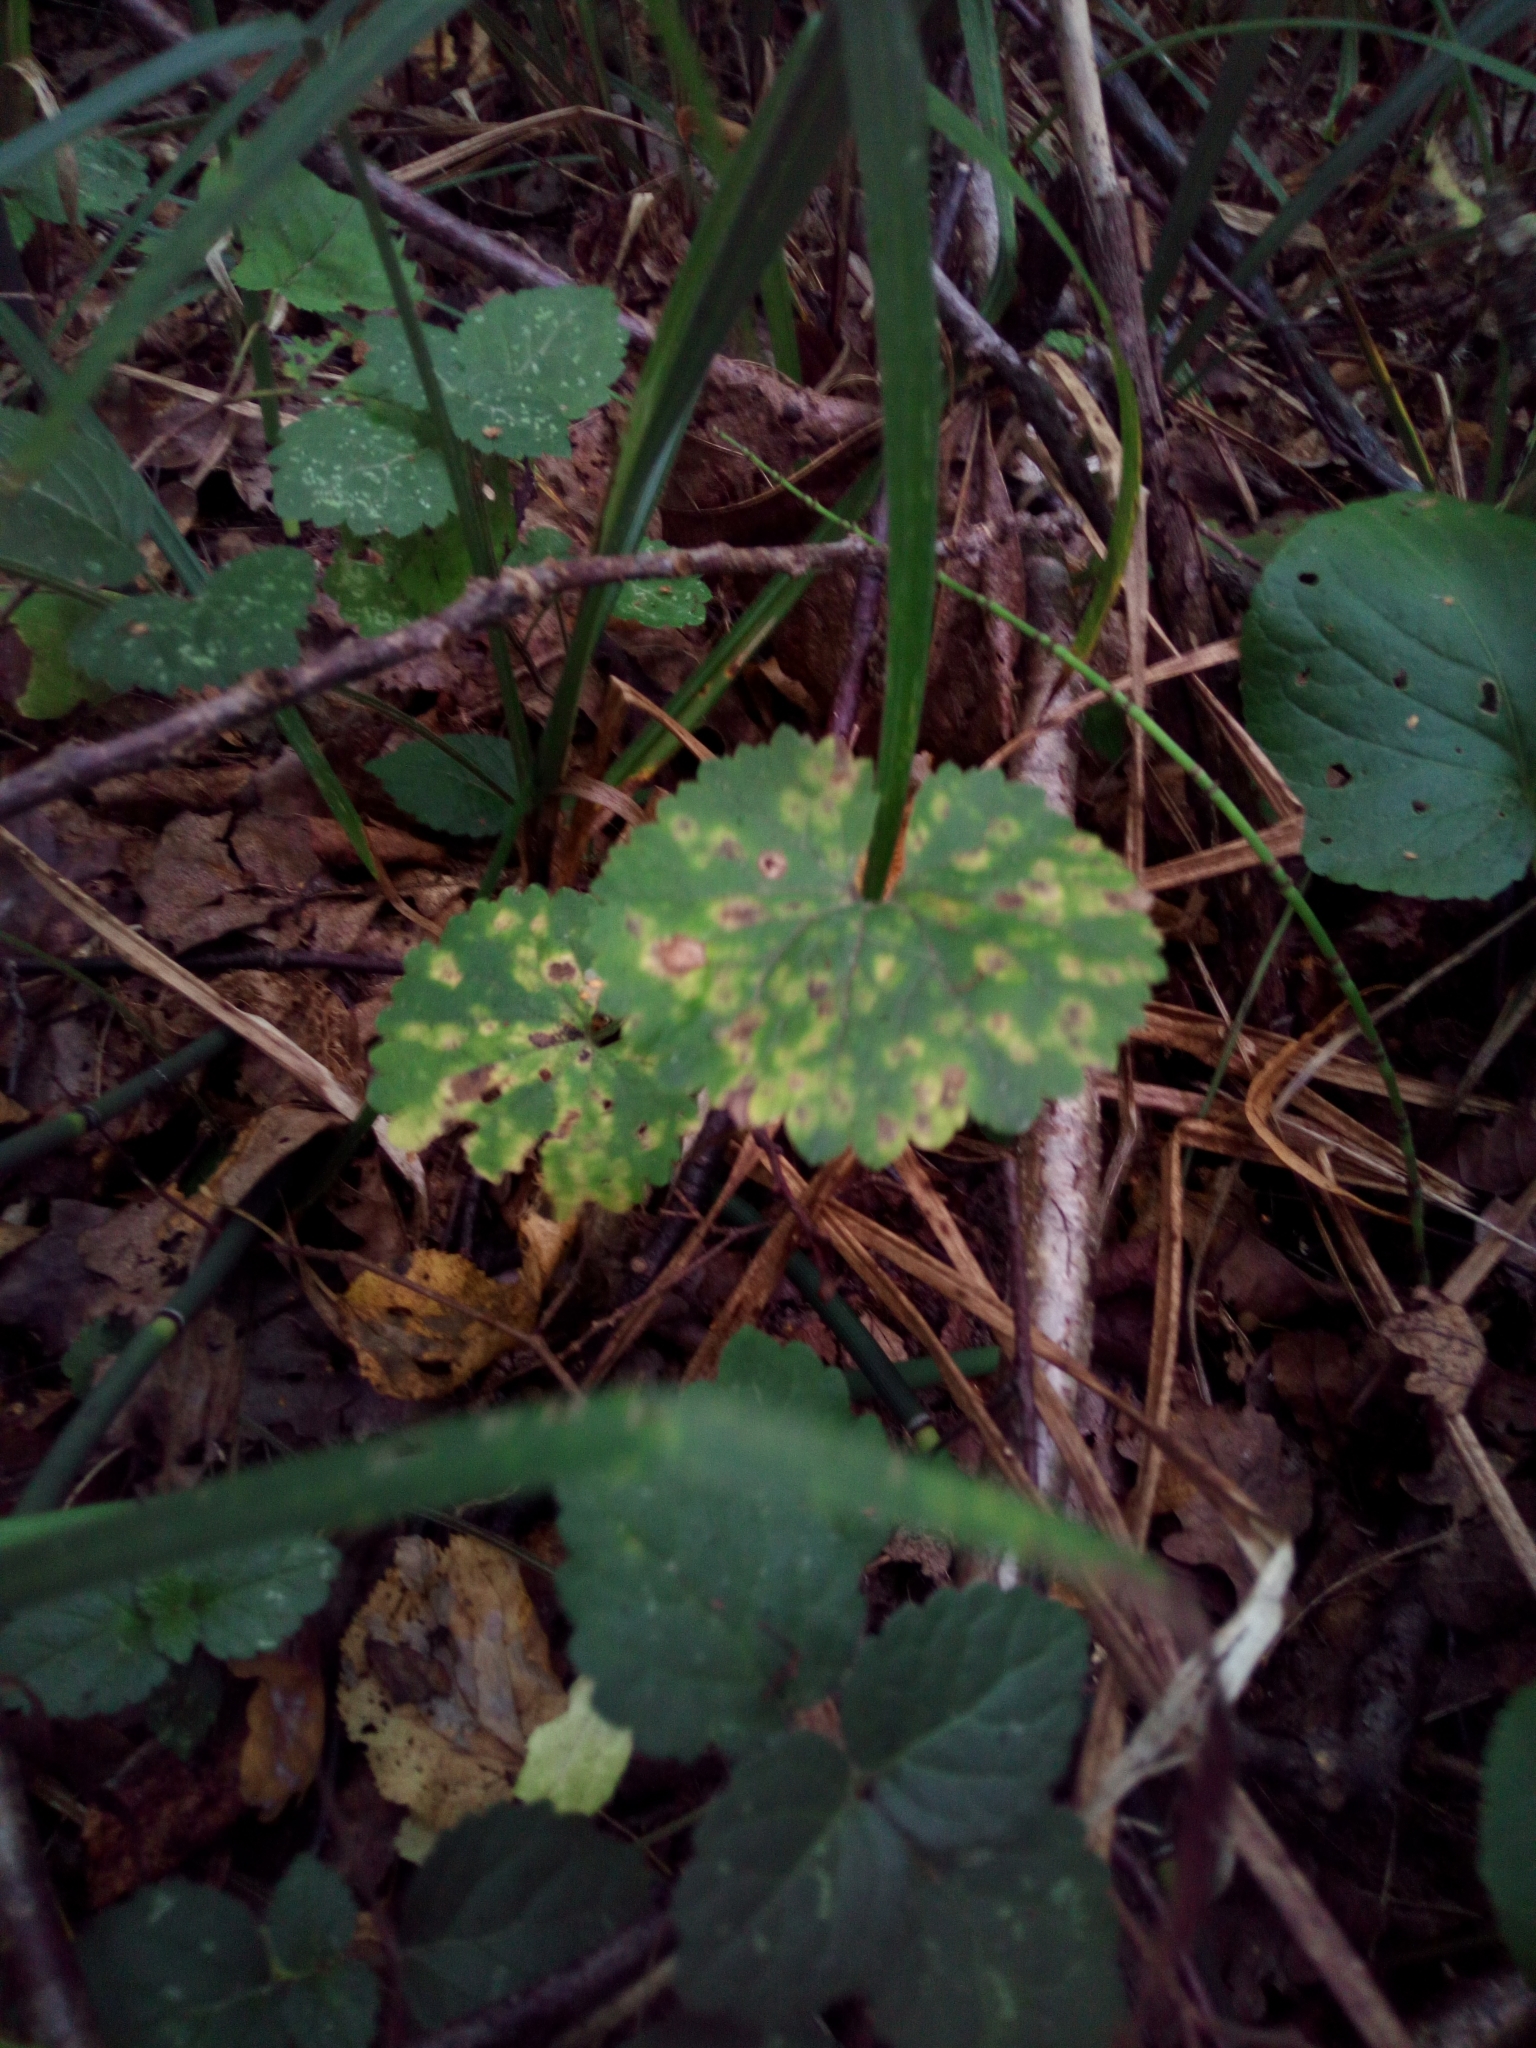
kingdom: Plantae
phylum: Tracheophyta
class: Magnoliopsida
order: Ranunculales
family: Ranunculaceae
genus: Ranunculus
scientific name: Ranunculus cassubicus
